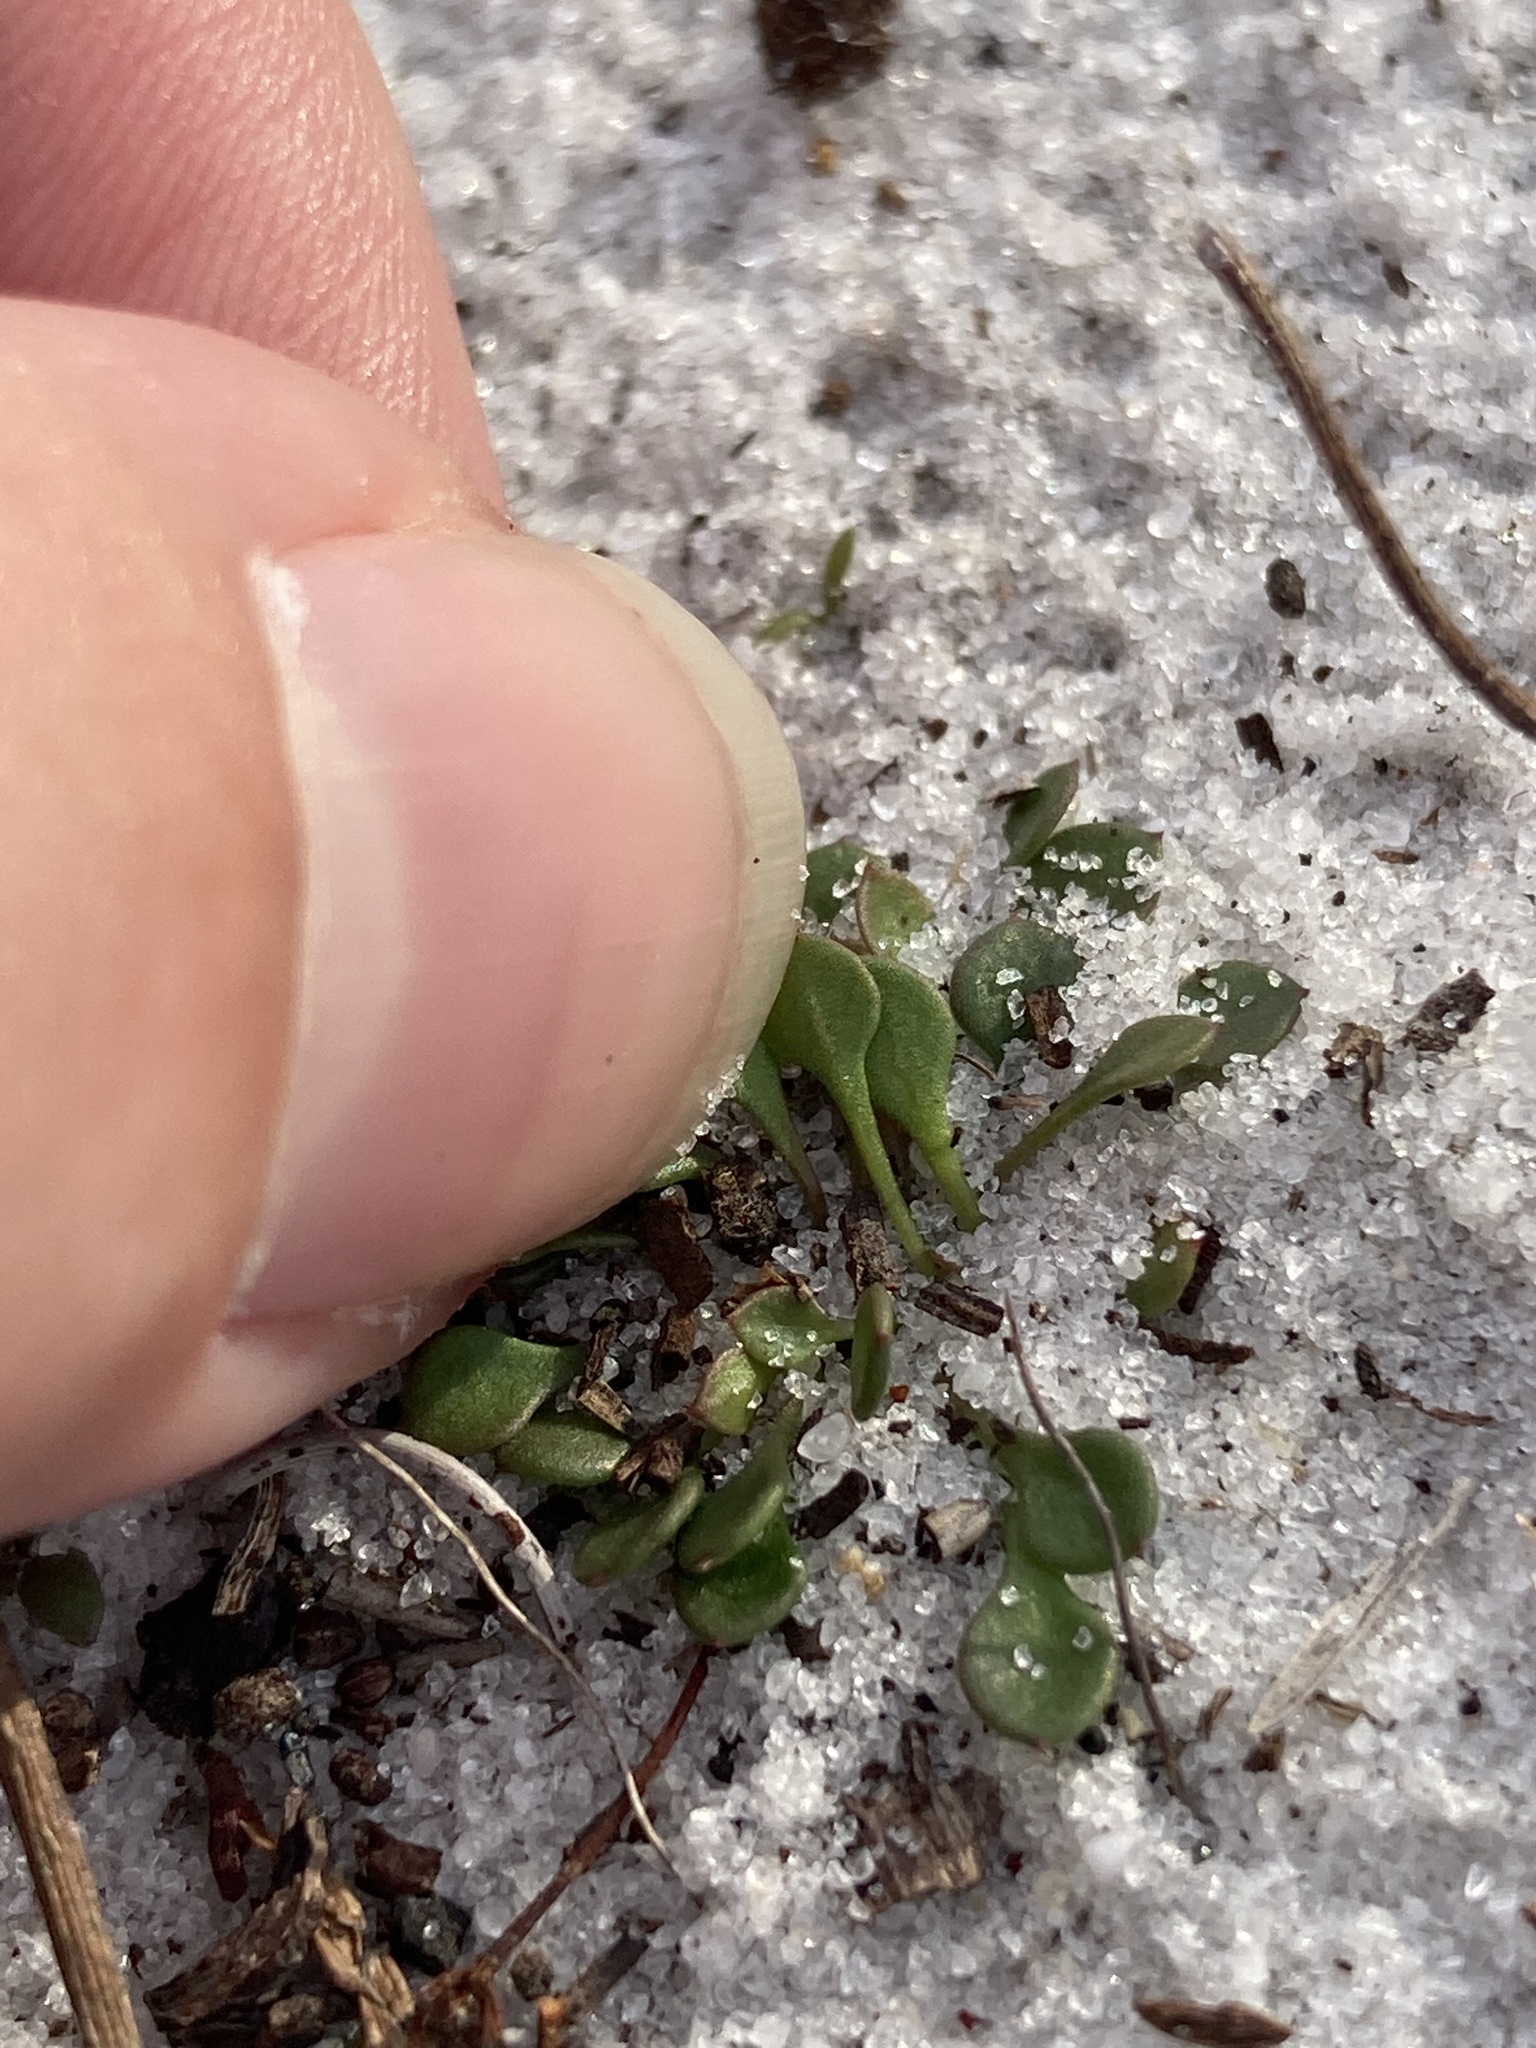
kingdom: Plantae
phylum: Tracheophyta
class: Magnoliopsida
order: Caryophyllales
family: Caryophyllaceae
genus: Stipulicida
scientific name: Stipulicida setacea
